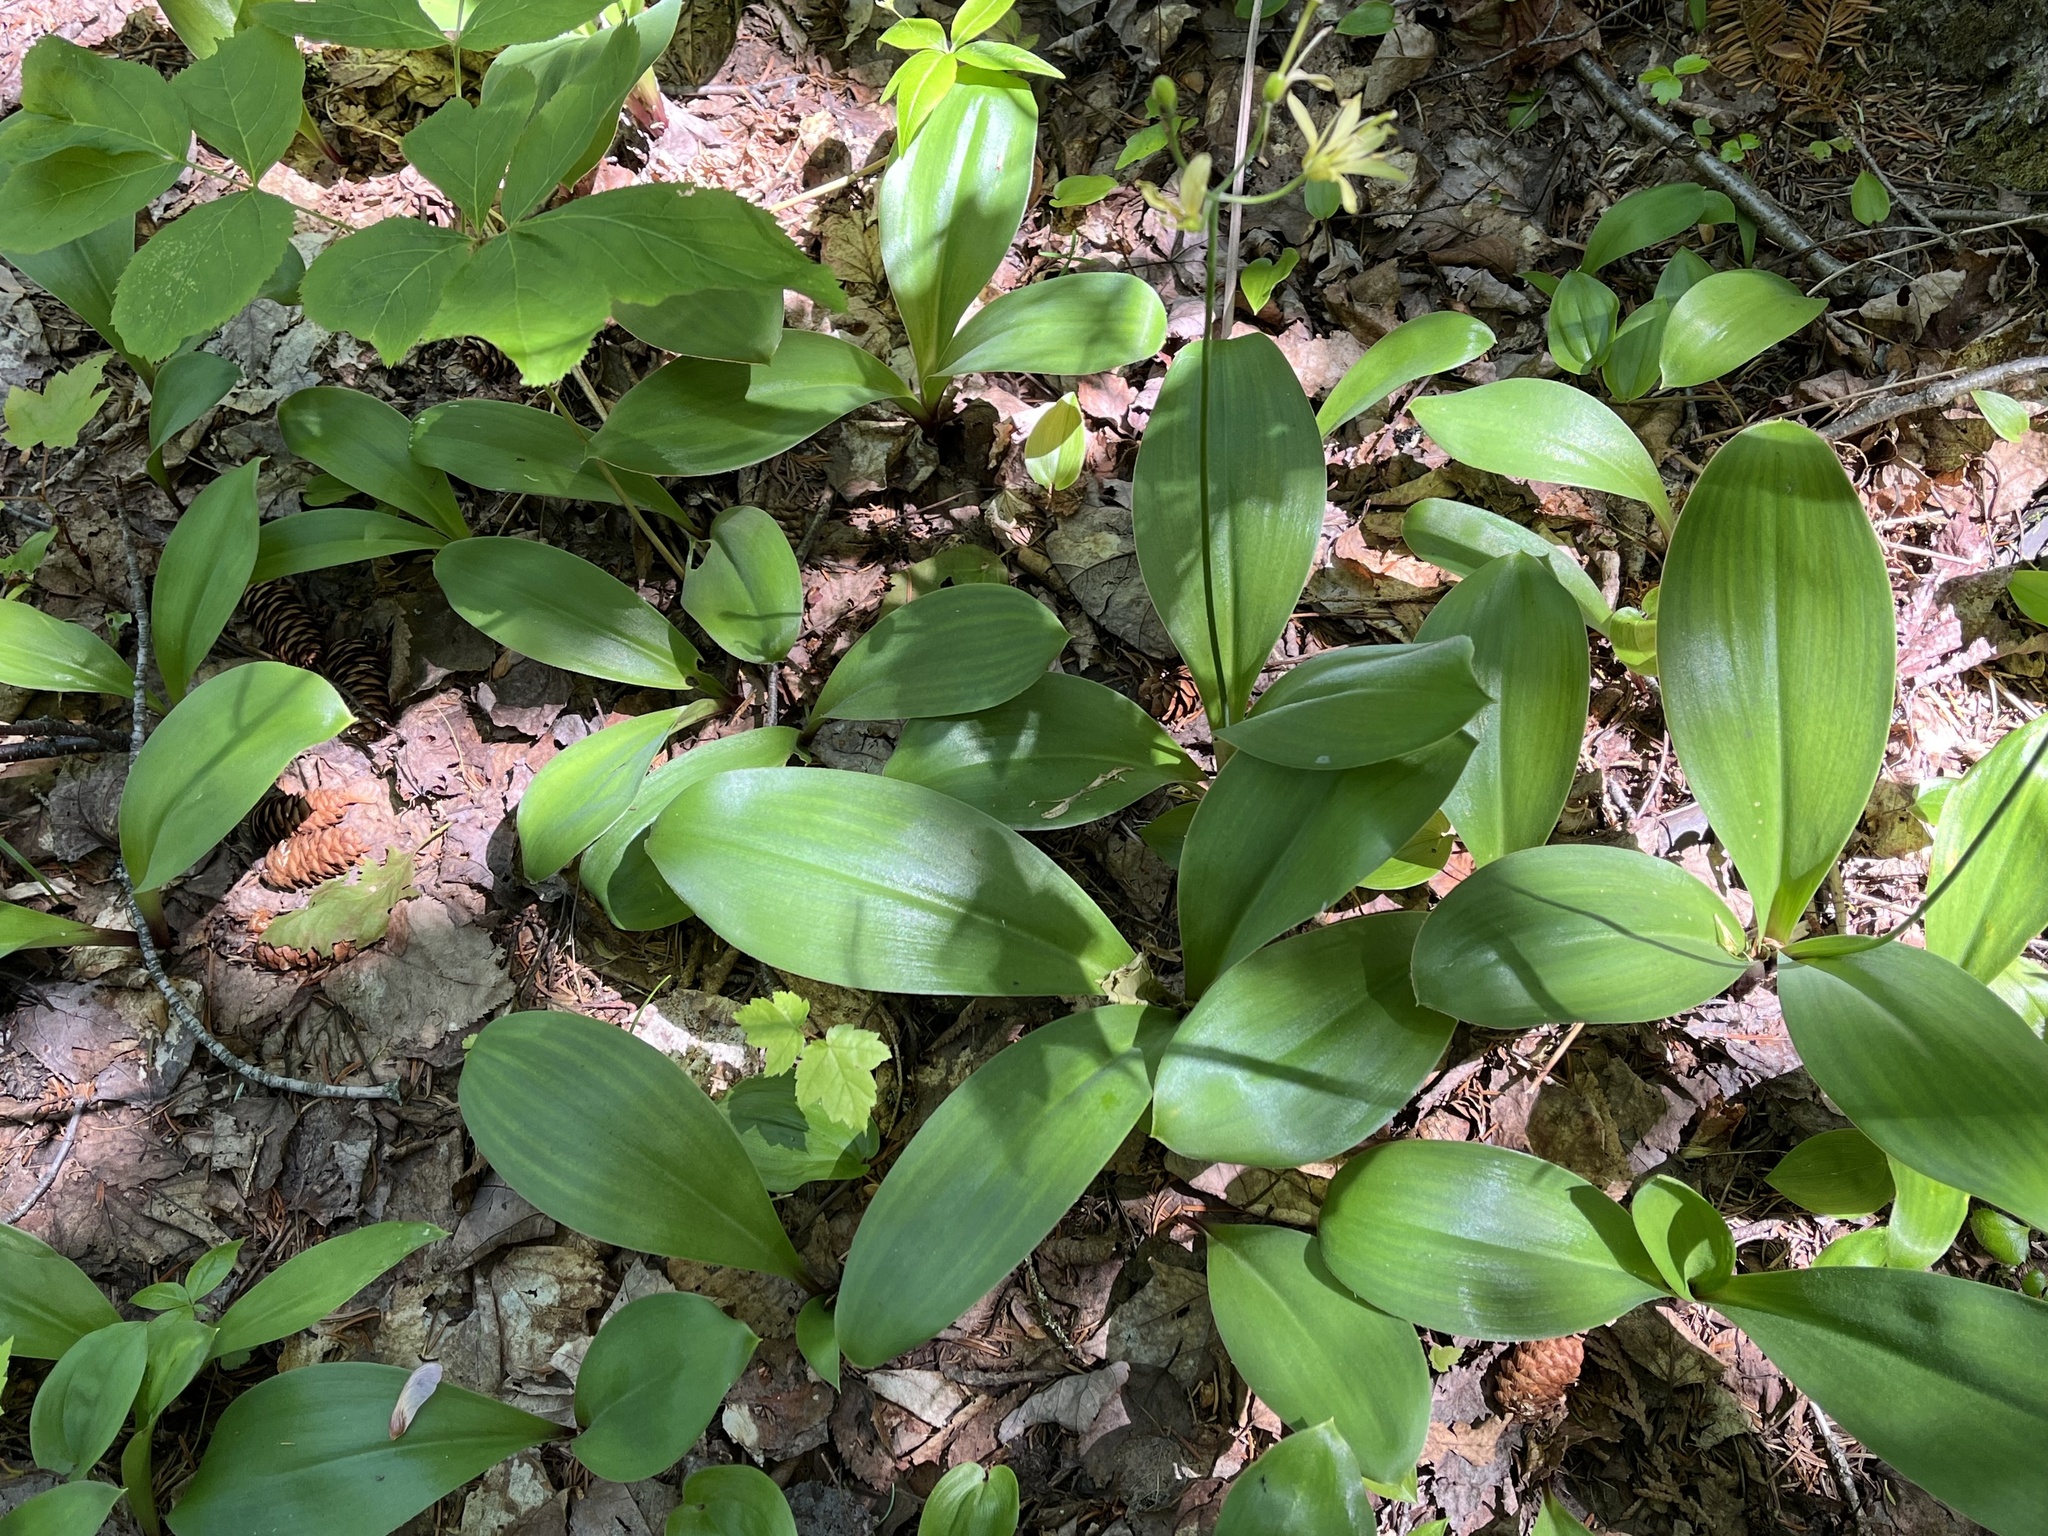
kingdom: Plantae
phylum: Tracheophyta
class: Liliopsida
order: Liliales
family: Liliaceae
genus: Clintonia
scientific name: Clintonia borealis
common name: Yellow clintonia
